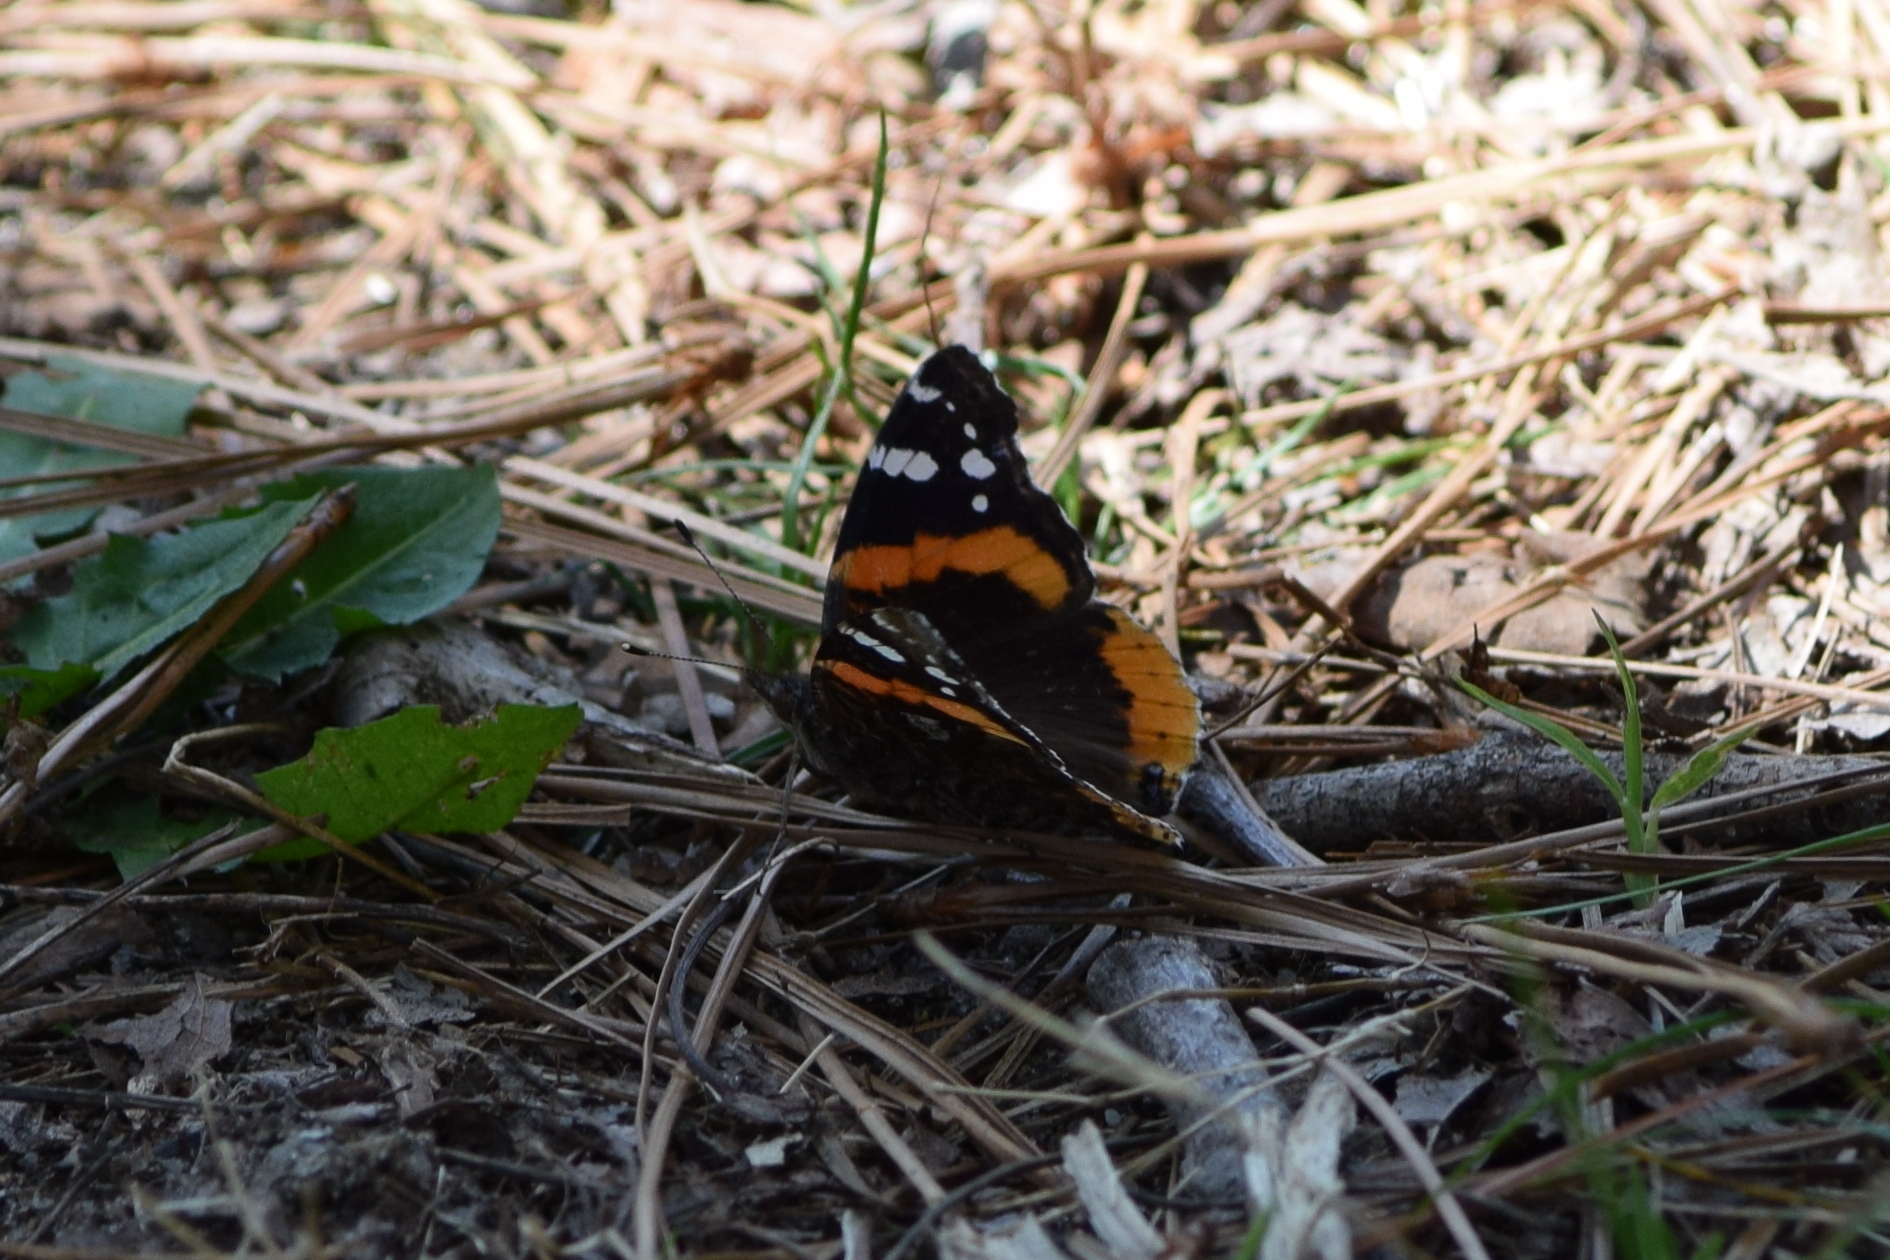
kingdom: Animalia
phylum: Arthropoda
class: Insecta
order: Lepidoptera
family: Nymphalidae
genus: Vanessa
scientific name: Vanessa atalanta
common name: Red admiral
